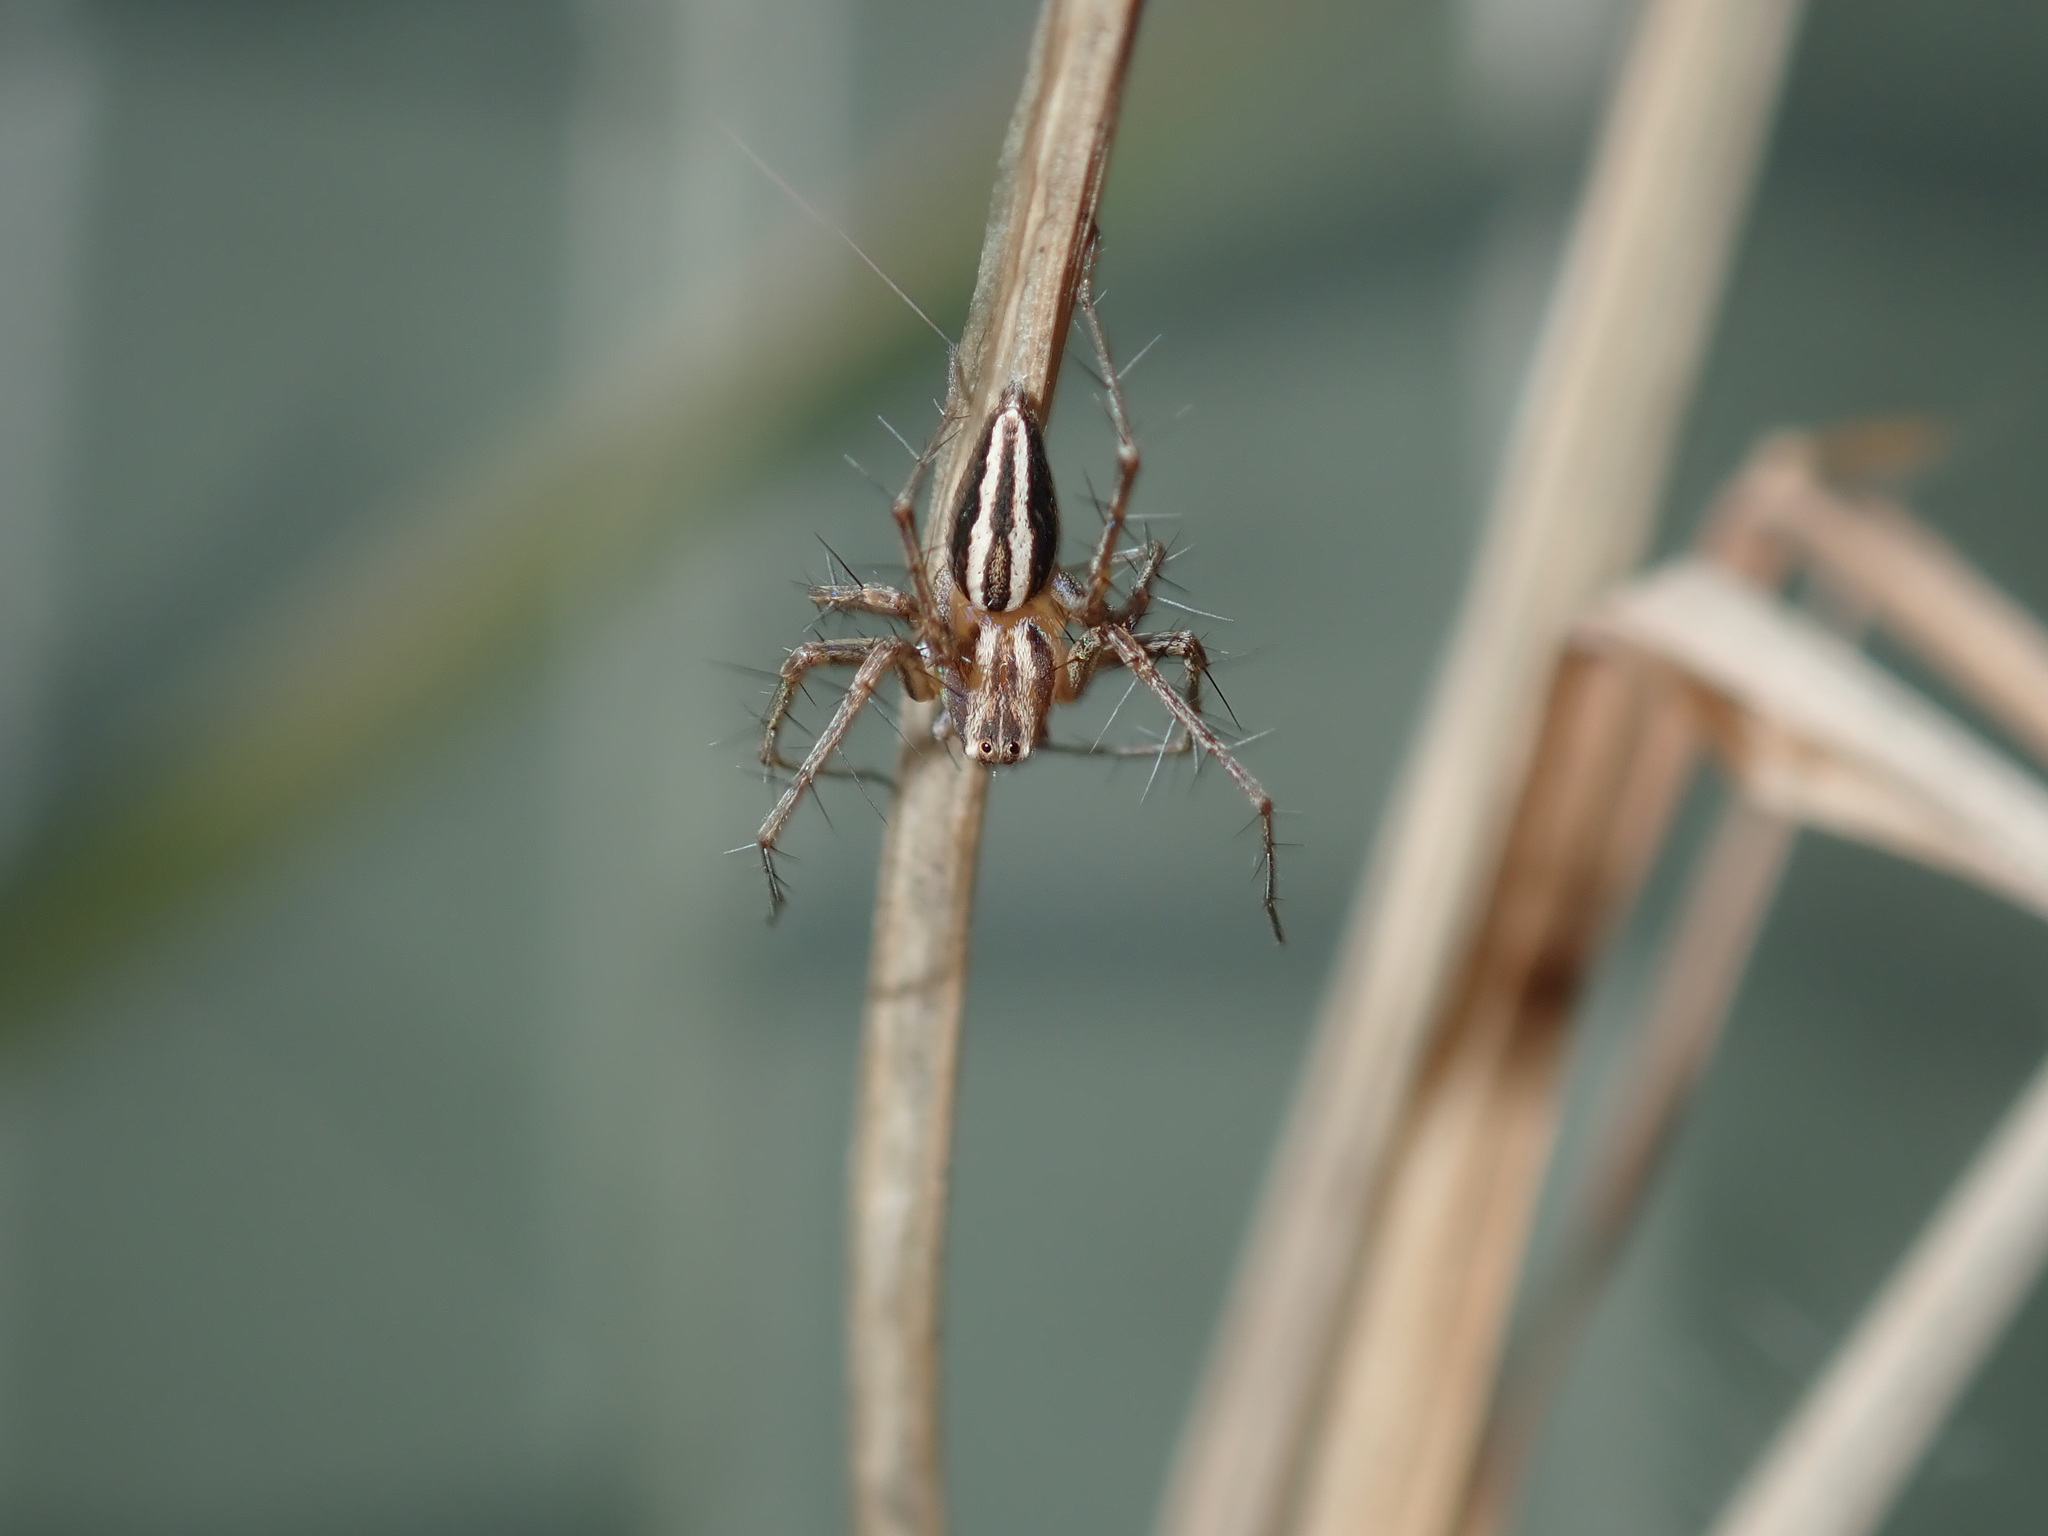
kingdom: Animalia
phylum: Arthropoda
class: Arachnida
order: Araneae
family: Oxyopidae
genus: Oxyopes
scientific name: Oxyopes elegans
